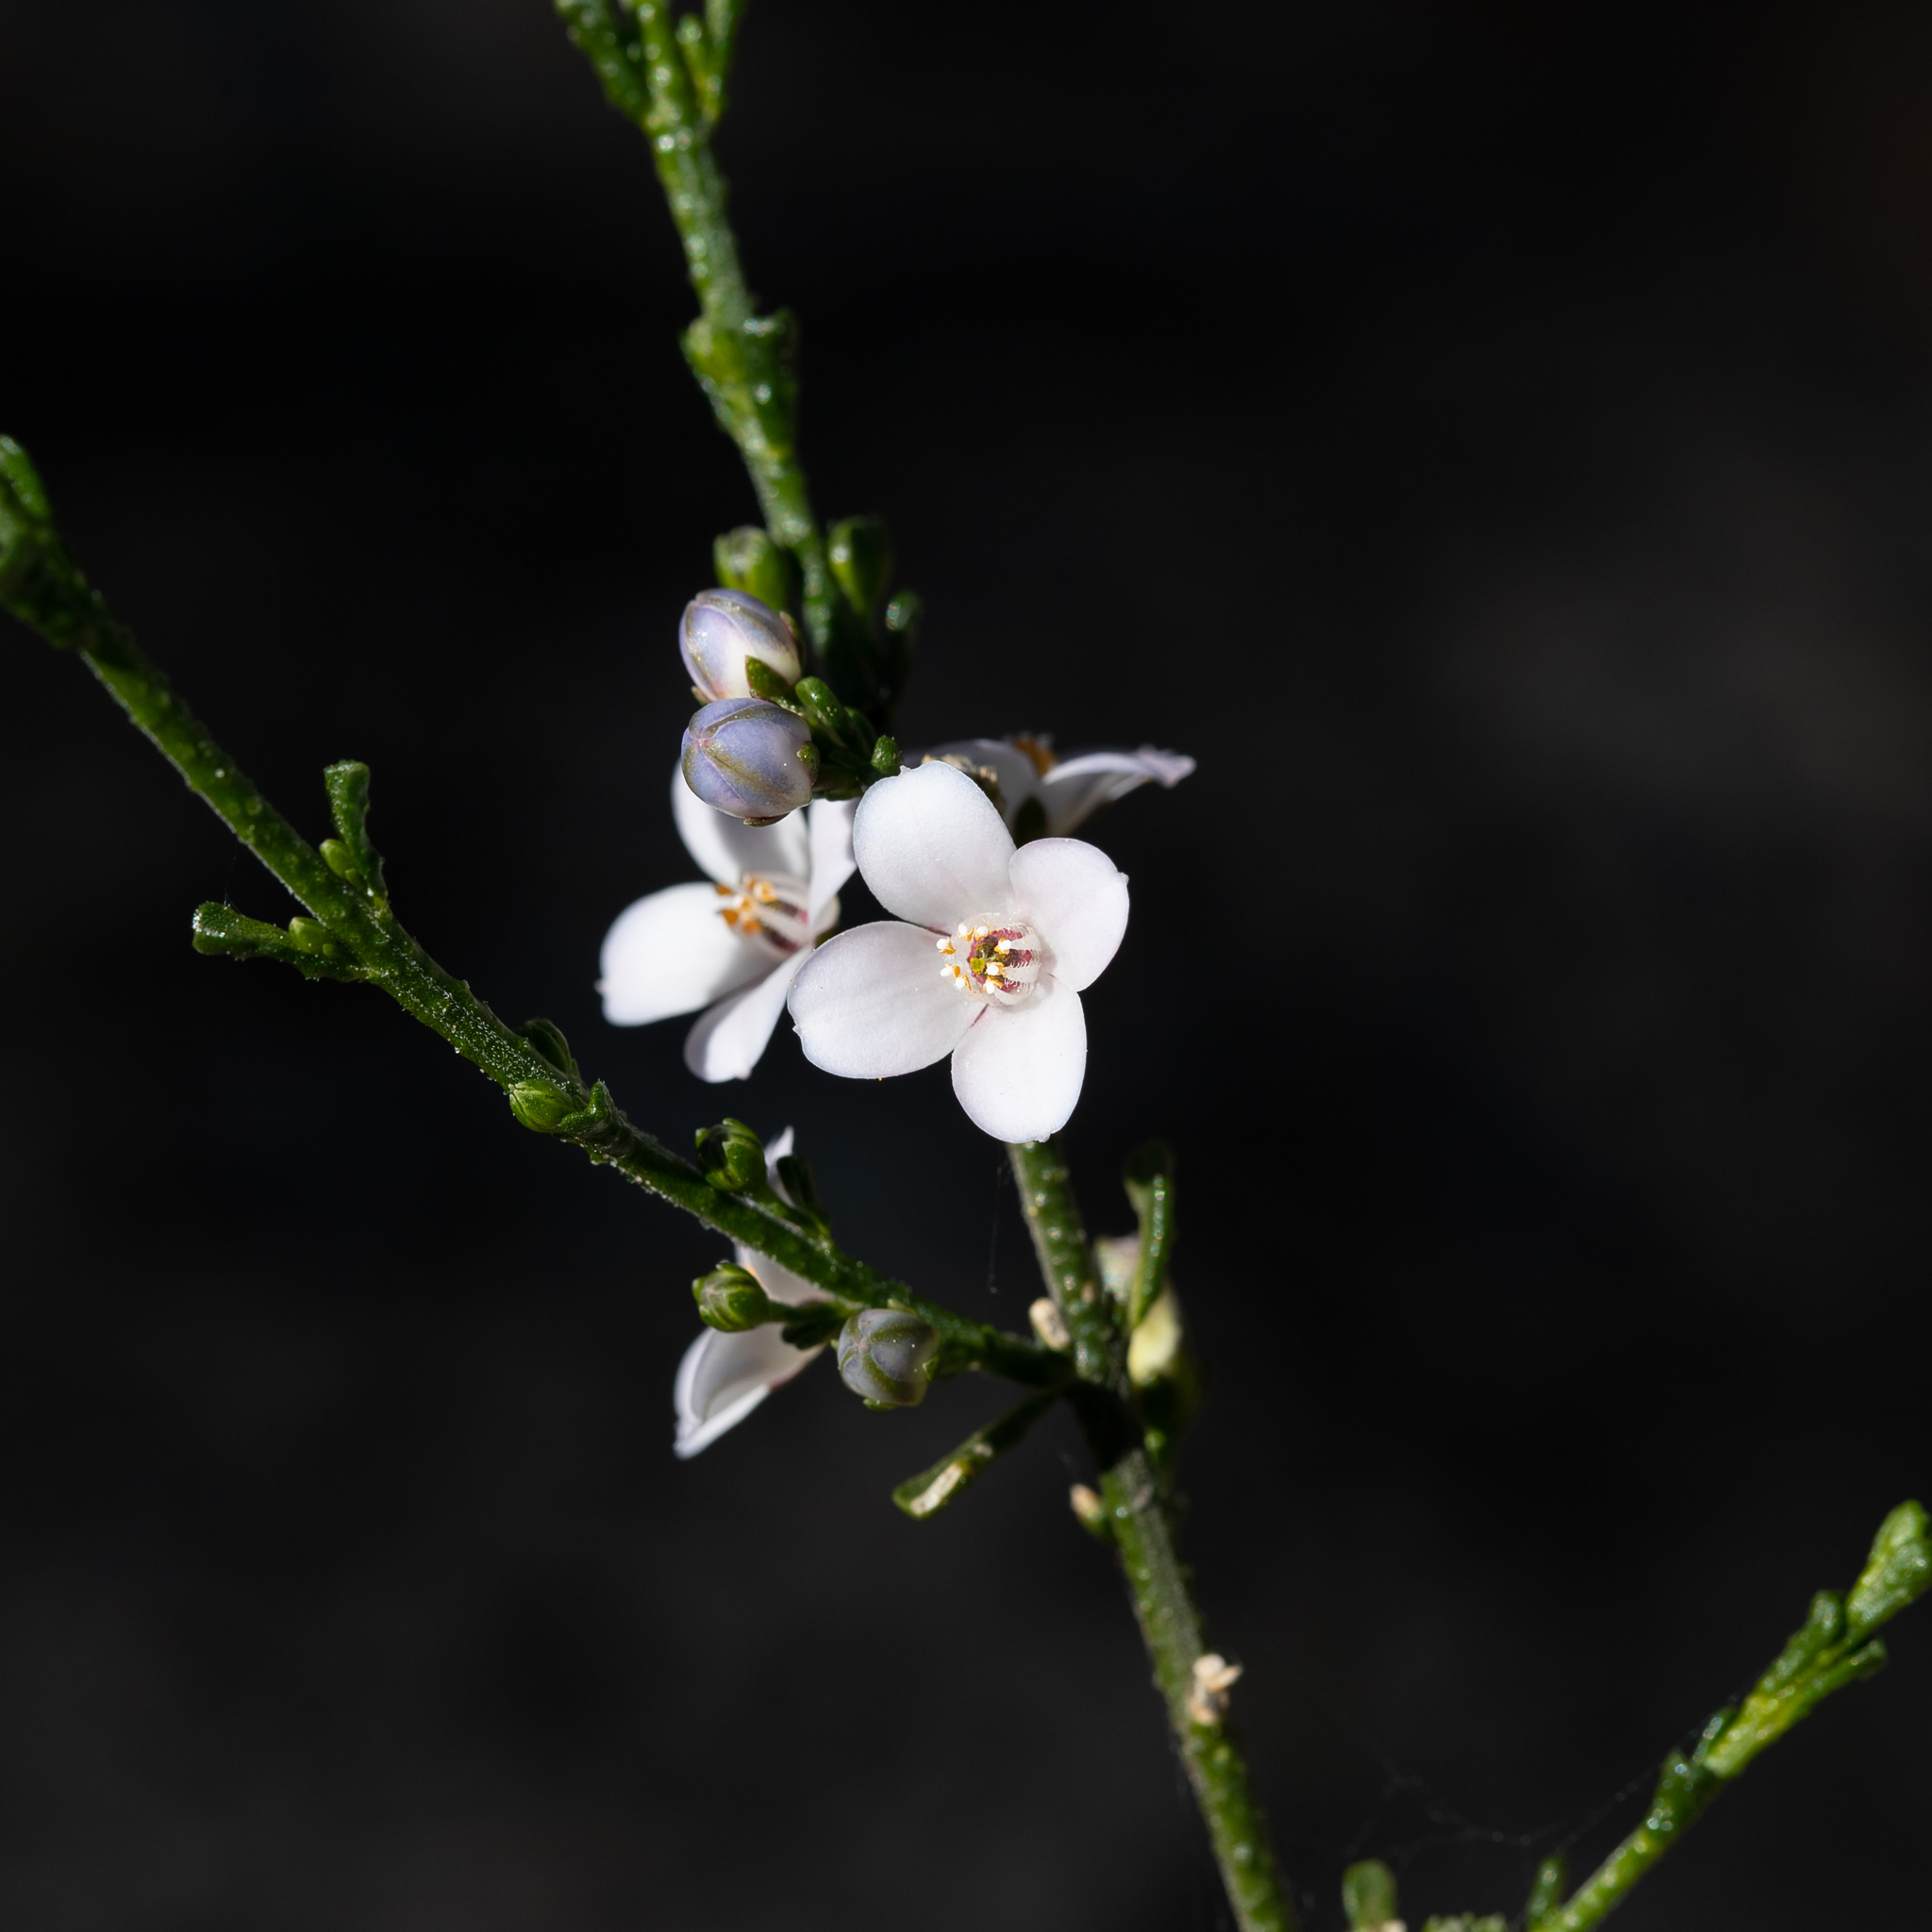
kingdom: Plantae
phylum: Tracheophyta
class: Magnoliopsida
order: Sapindales
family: Rutaceae
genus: Cyanothamnus
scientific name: Cyanothamnus coerulescens
